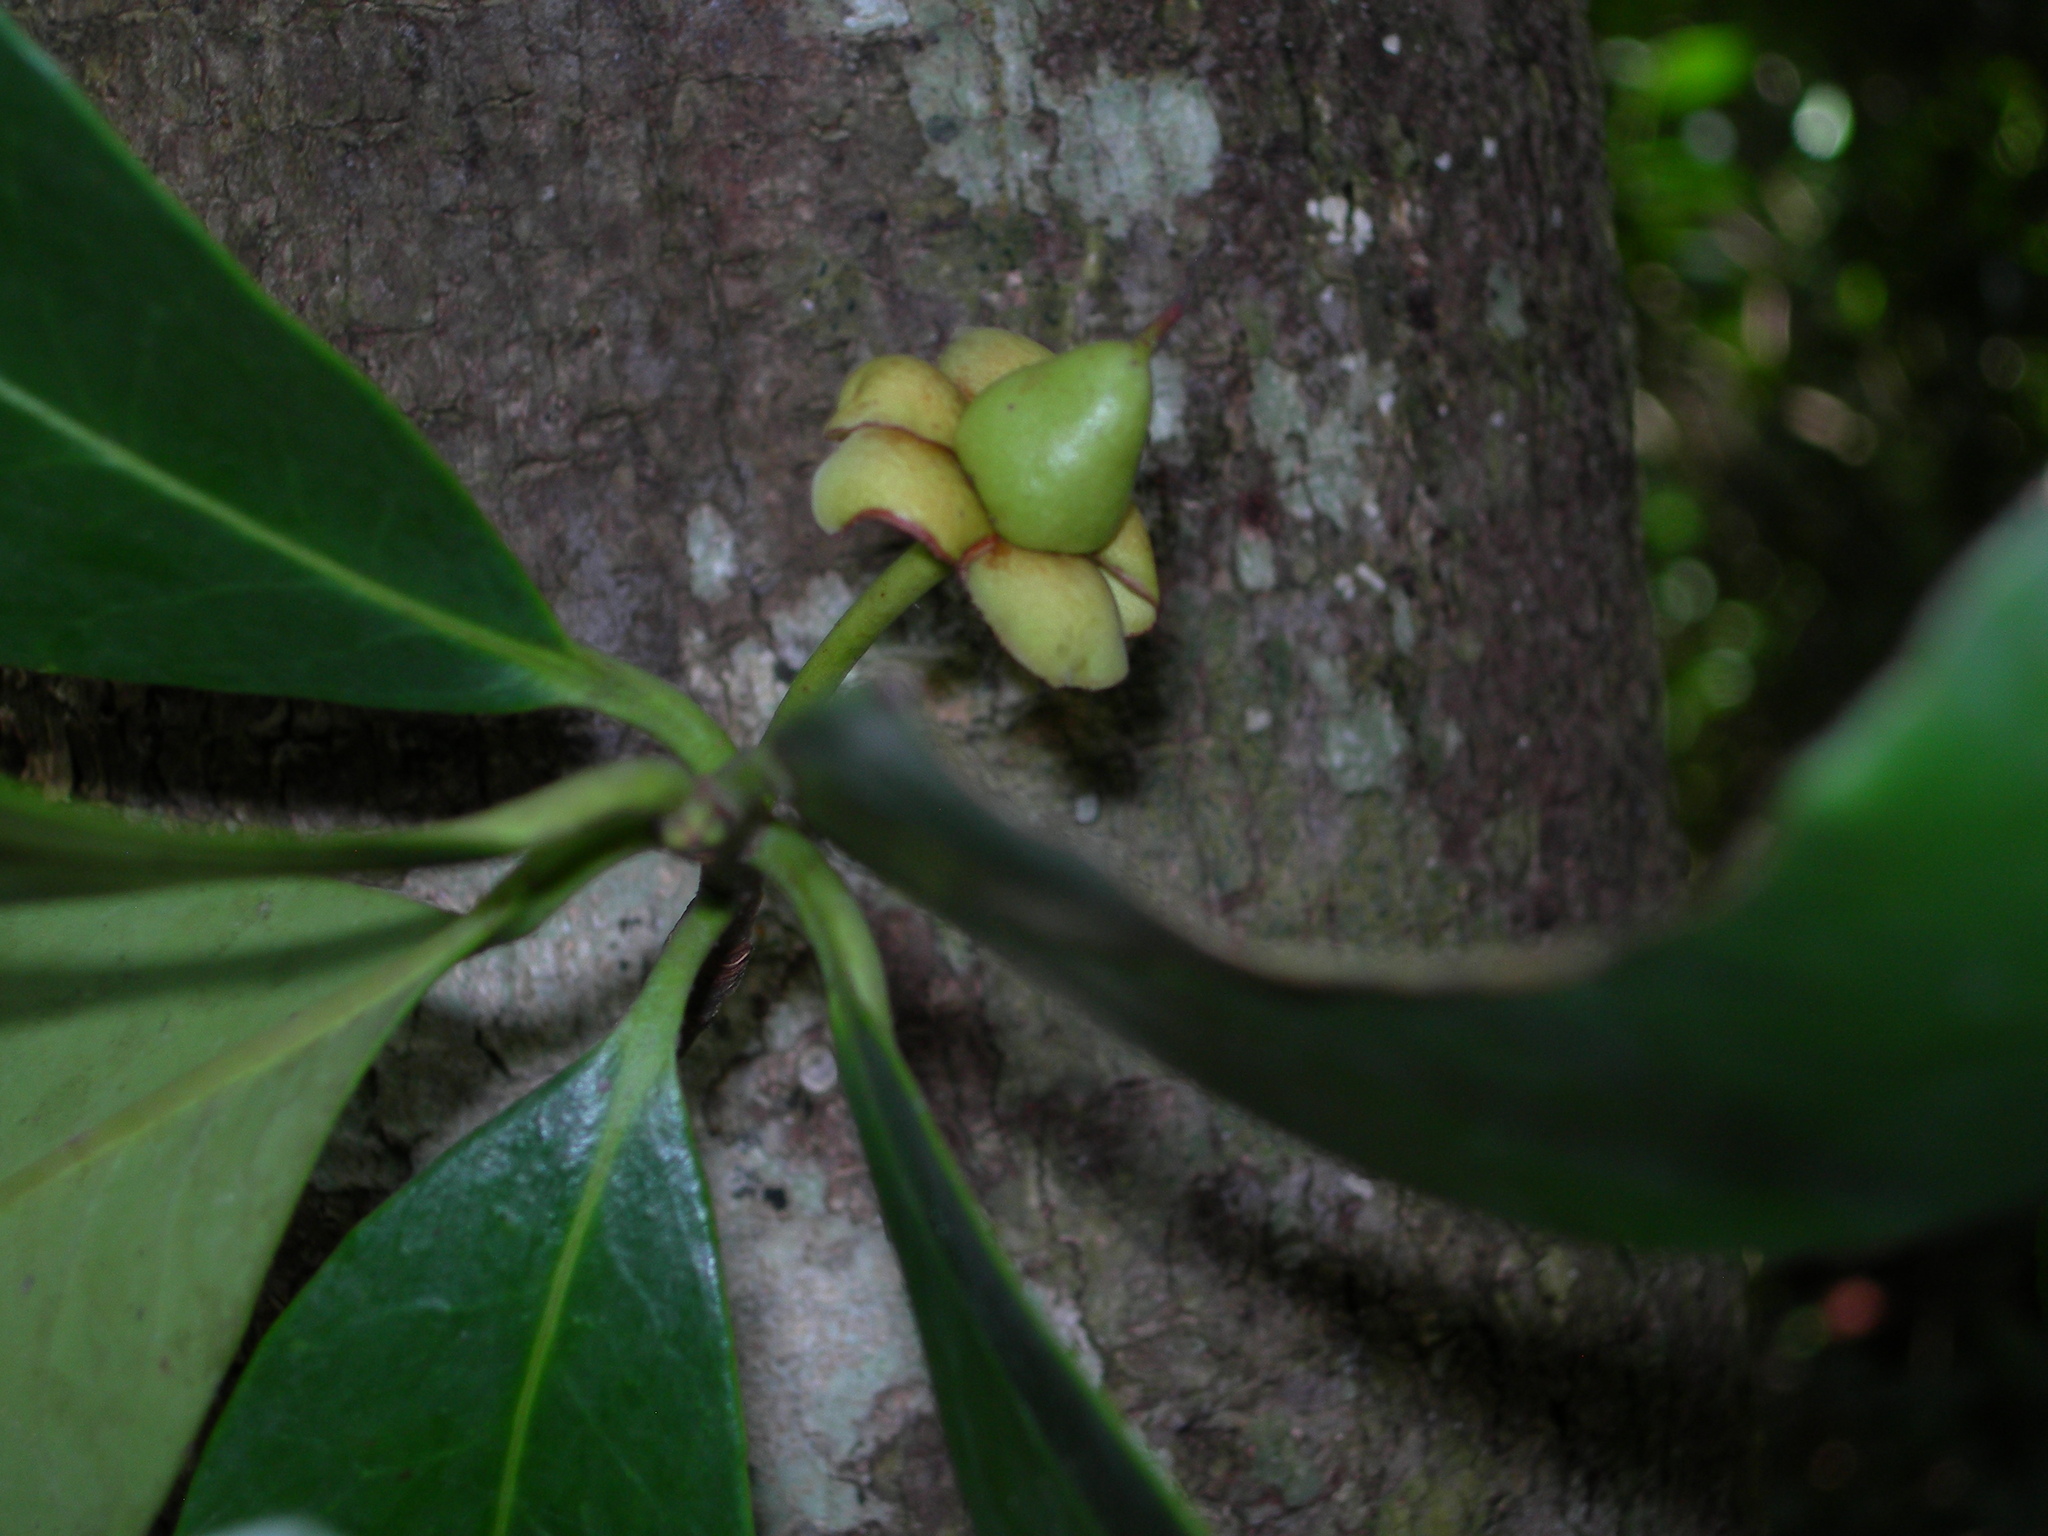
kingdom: Plantae
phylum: Tracheophyta
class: Magnoliopsida
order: Ericales
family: Pentaphylacaceae
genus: Ternstroemia
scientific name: Ternstroemia tepezapote
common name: Copey vera
